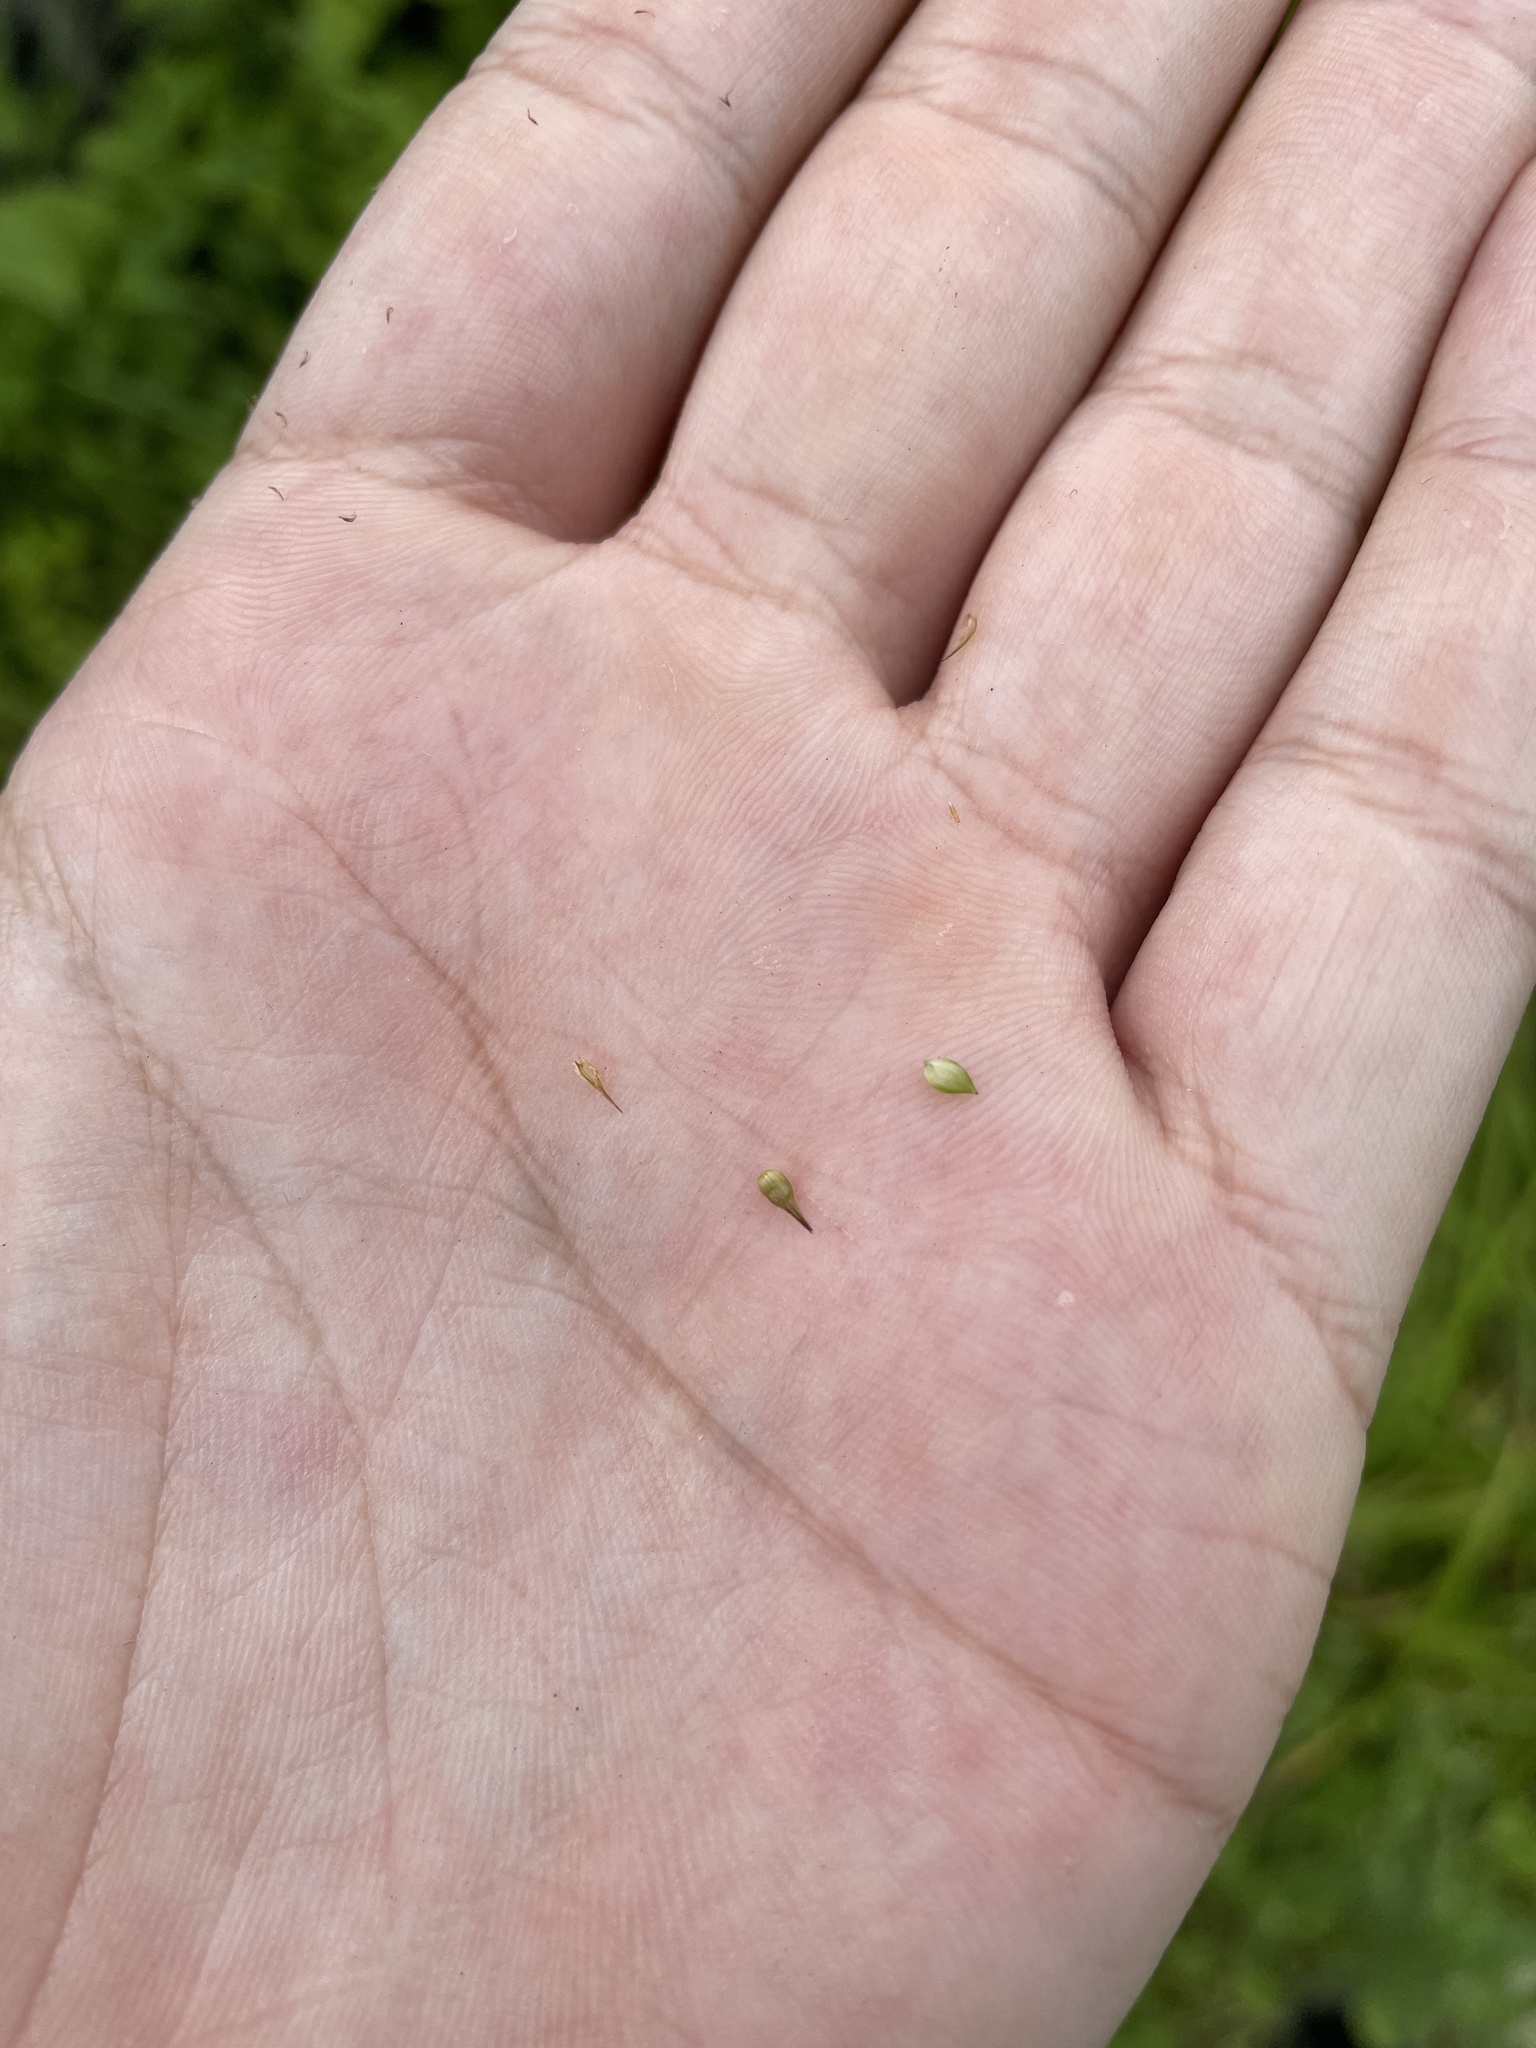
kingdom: Plantae
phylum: Tracheophyta
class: Liliopsida
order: Poales
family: Cyperaceae
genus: Carex
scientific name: Carex fumosimontana
